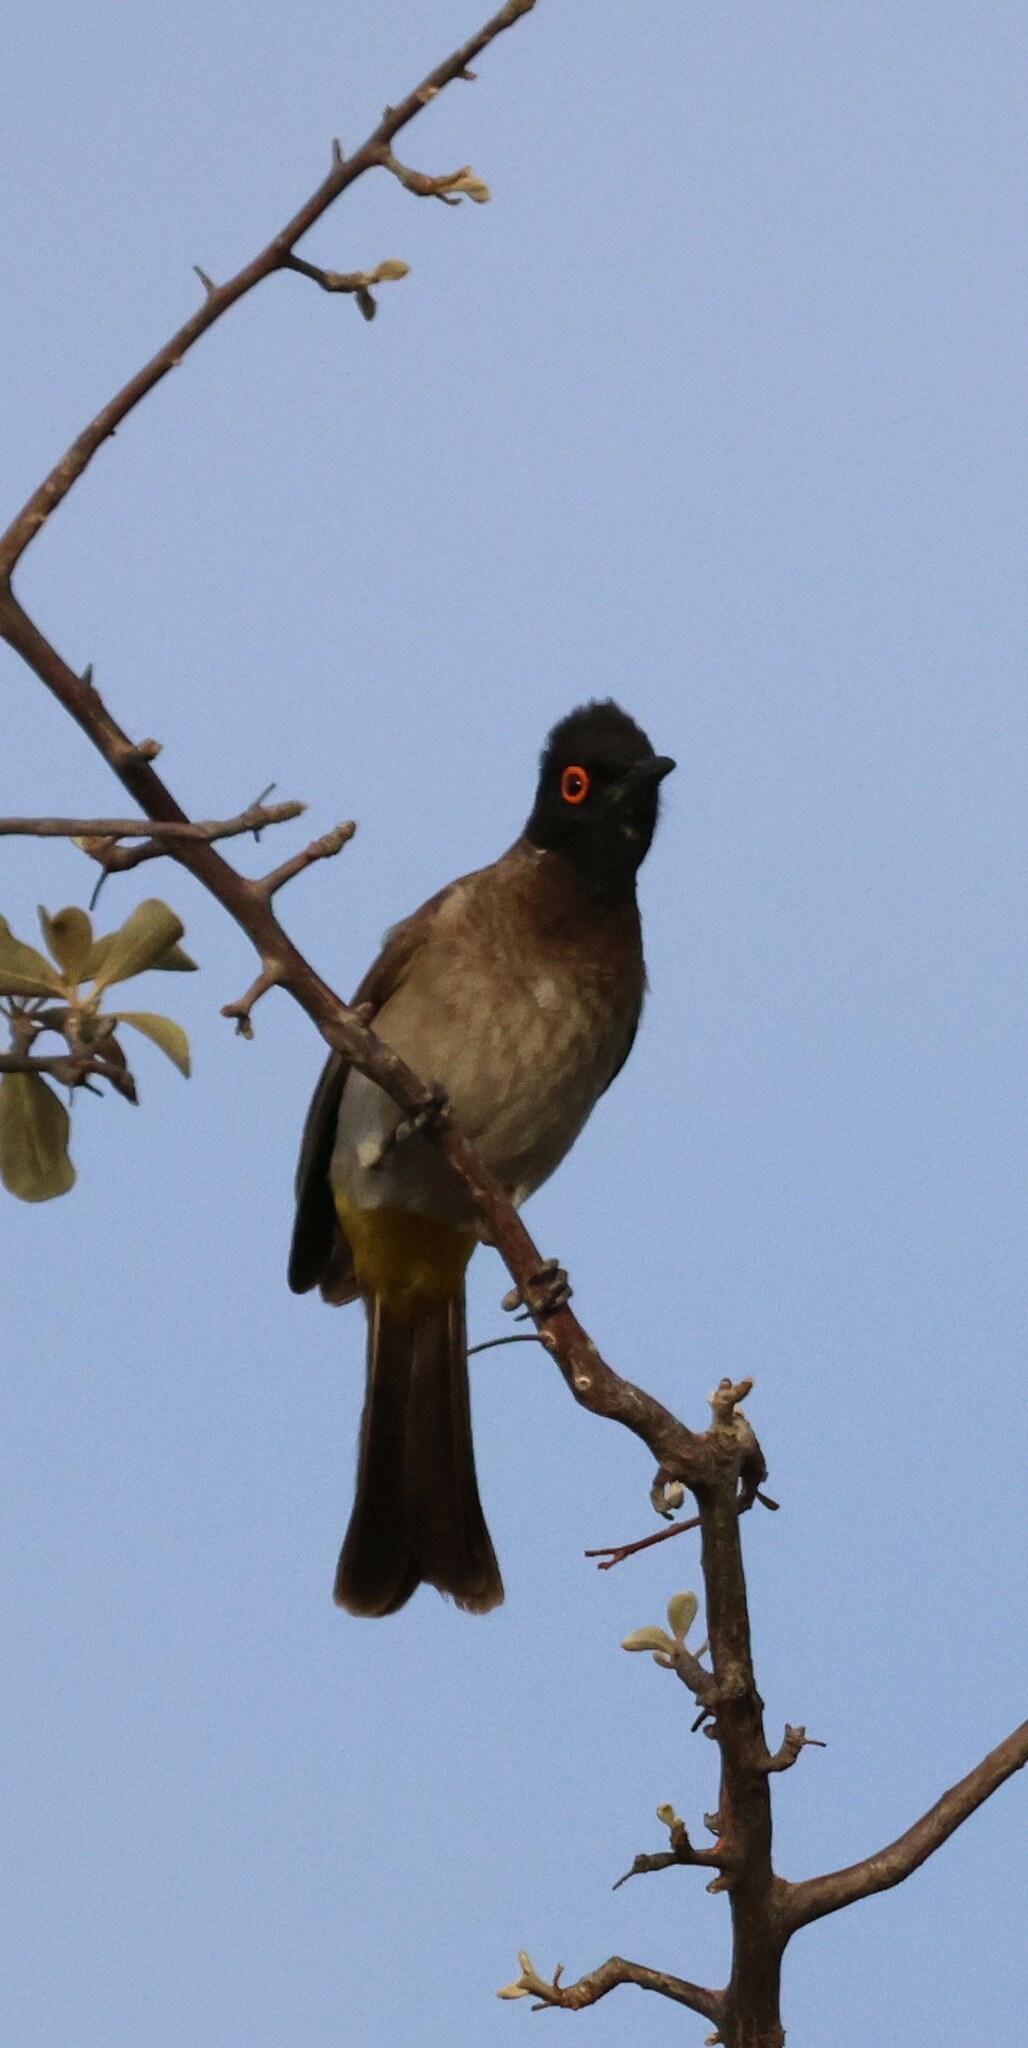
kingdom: Animalia
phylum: Chordata
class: Aves
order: Passeriformes
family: Pycnonotidae
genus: Pycnonotus
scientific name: Pycnonotus nigricans
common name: African red-eyed bulbul
